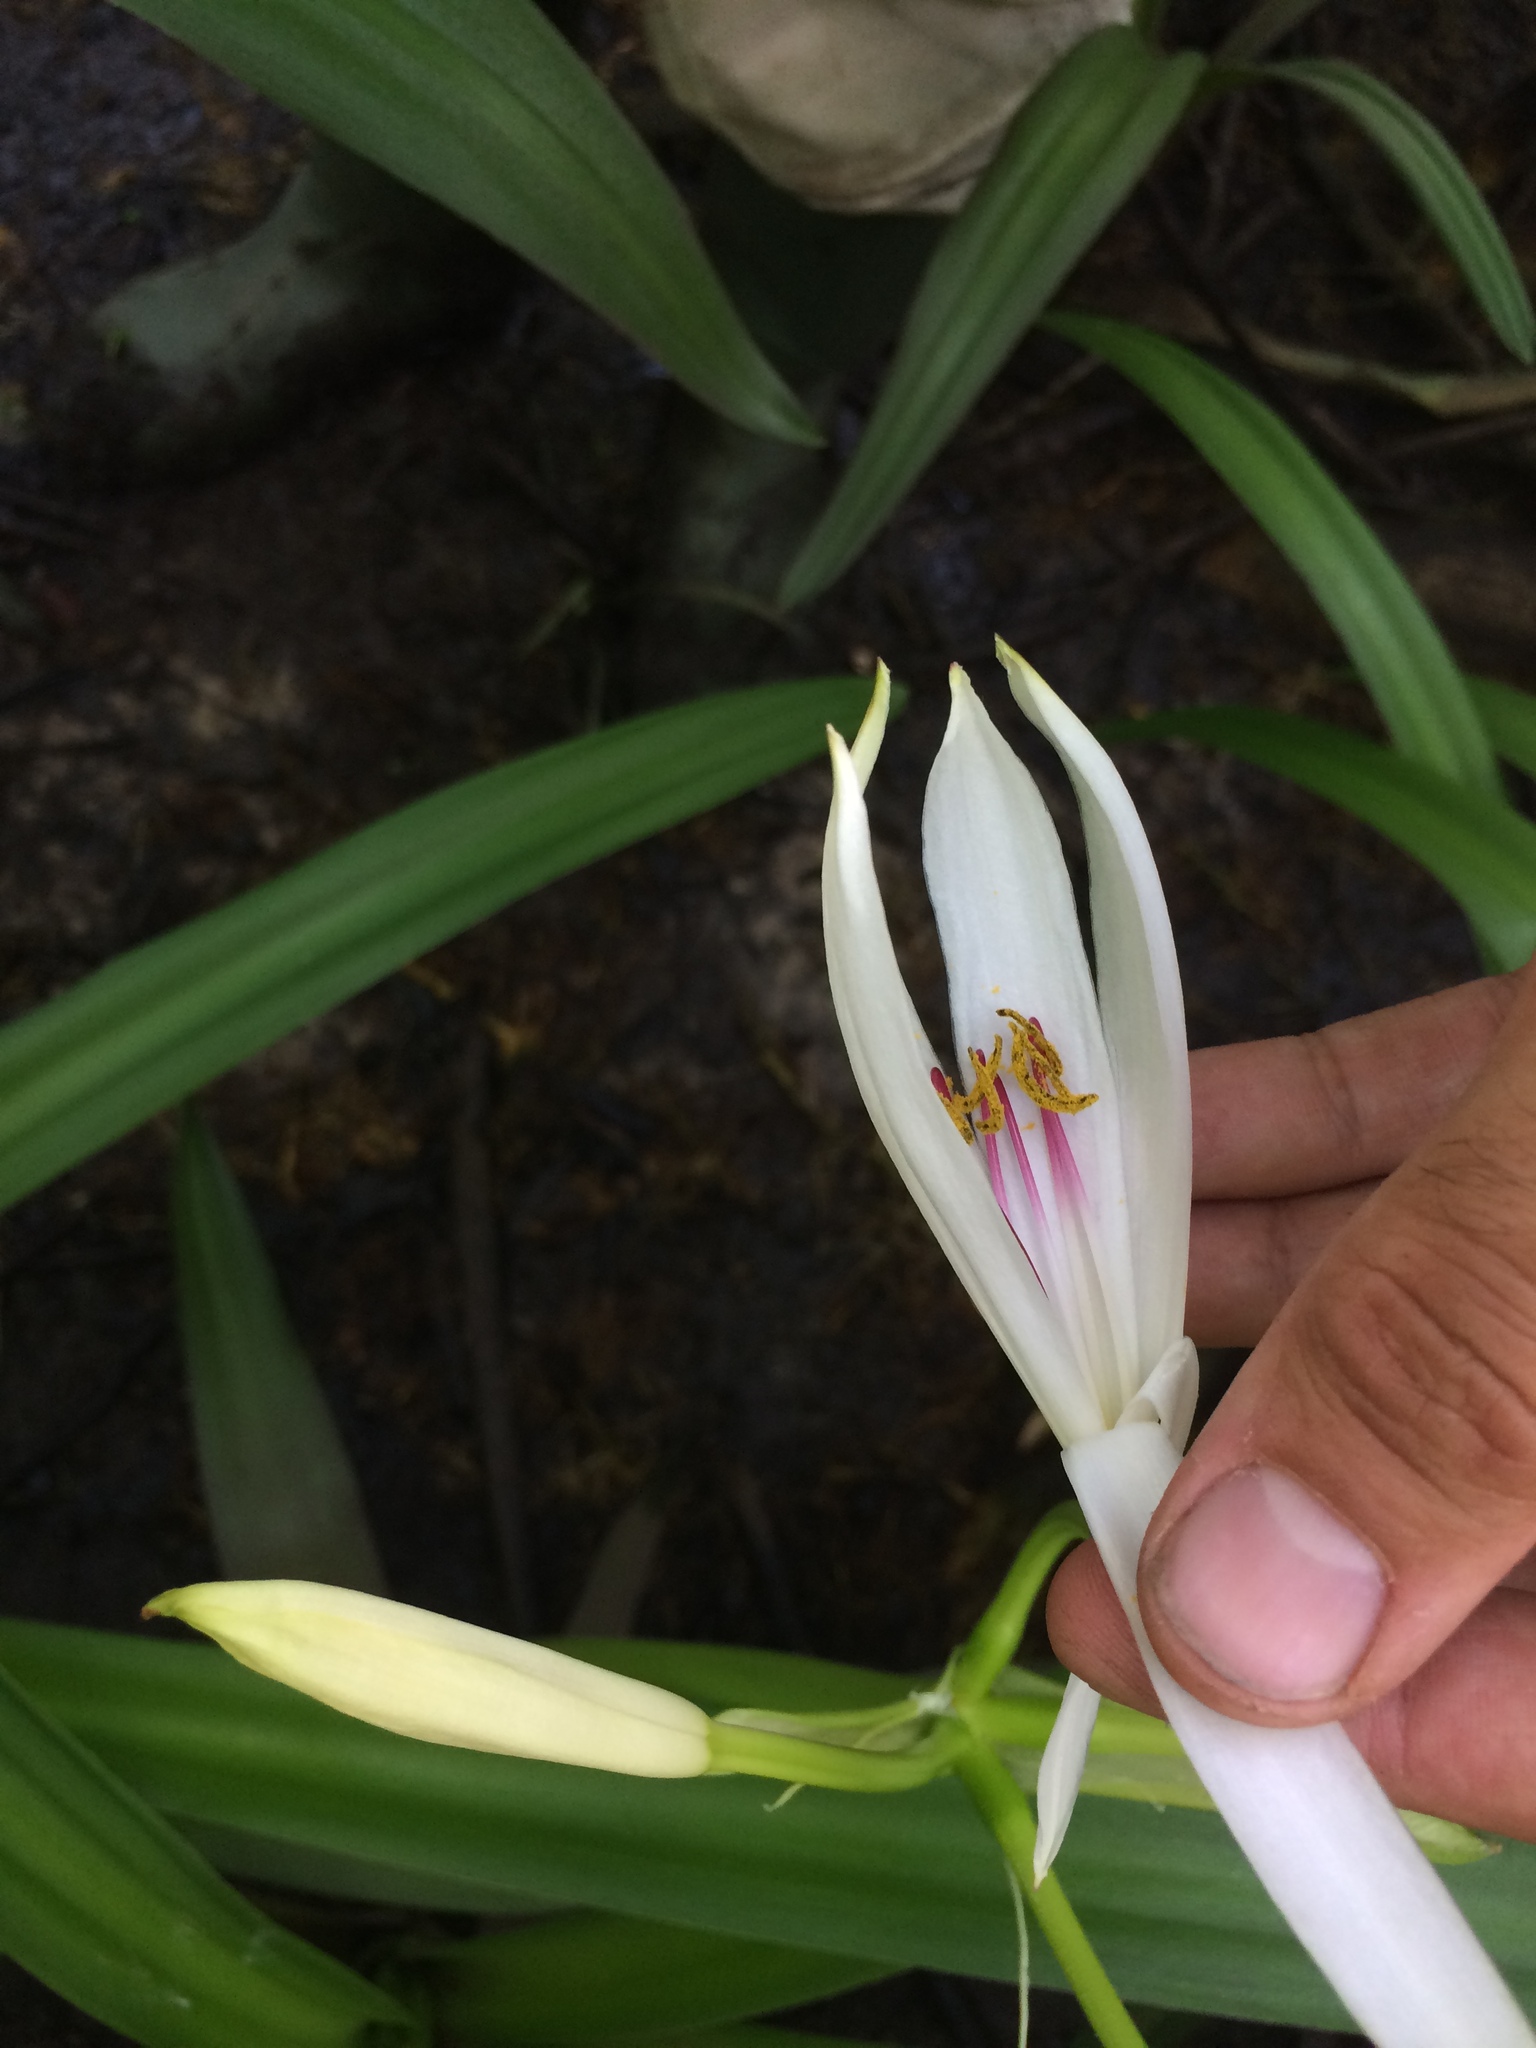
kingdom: Plantae
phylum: Tracheophyta
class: Liliopsida
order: Asparagales
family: Amaryllidaceae
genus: Crinum
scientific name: Crinum americanum
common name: Florida swamp-lily
